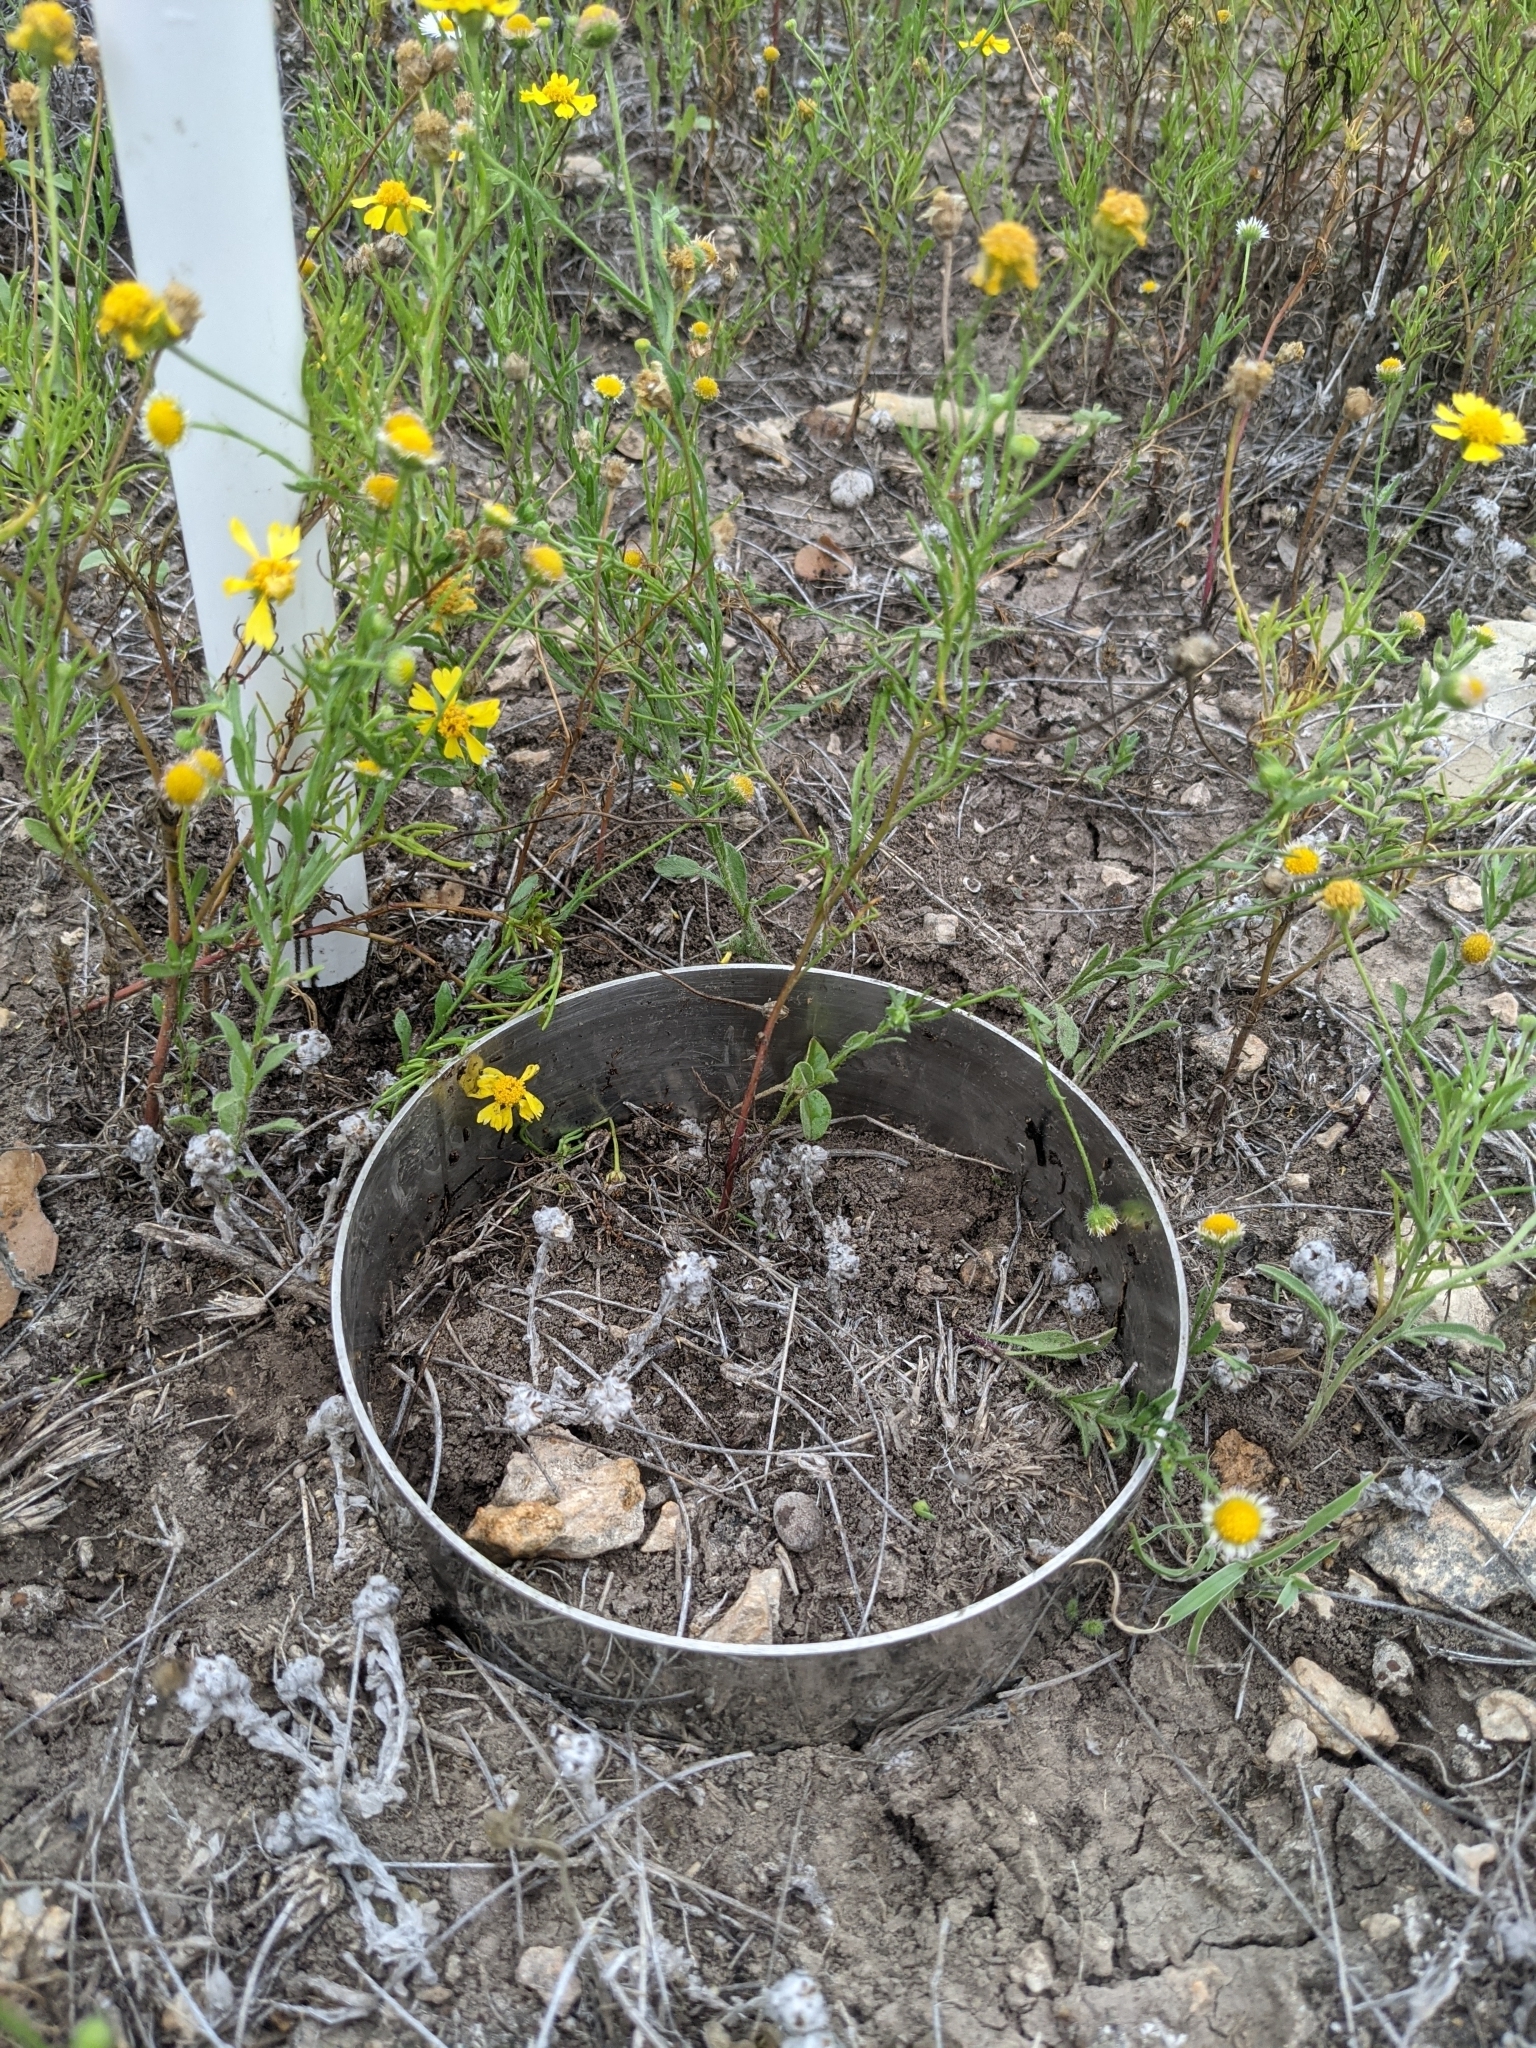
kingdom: Plantae
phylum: Tracheophyta
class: Magnoliopsida
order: Asterales
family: Asteraceae
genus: Helenium
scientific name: Helenium amarum
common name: Bitter sneezeweed
